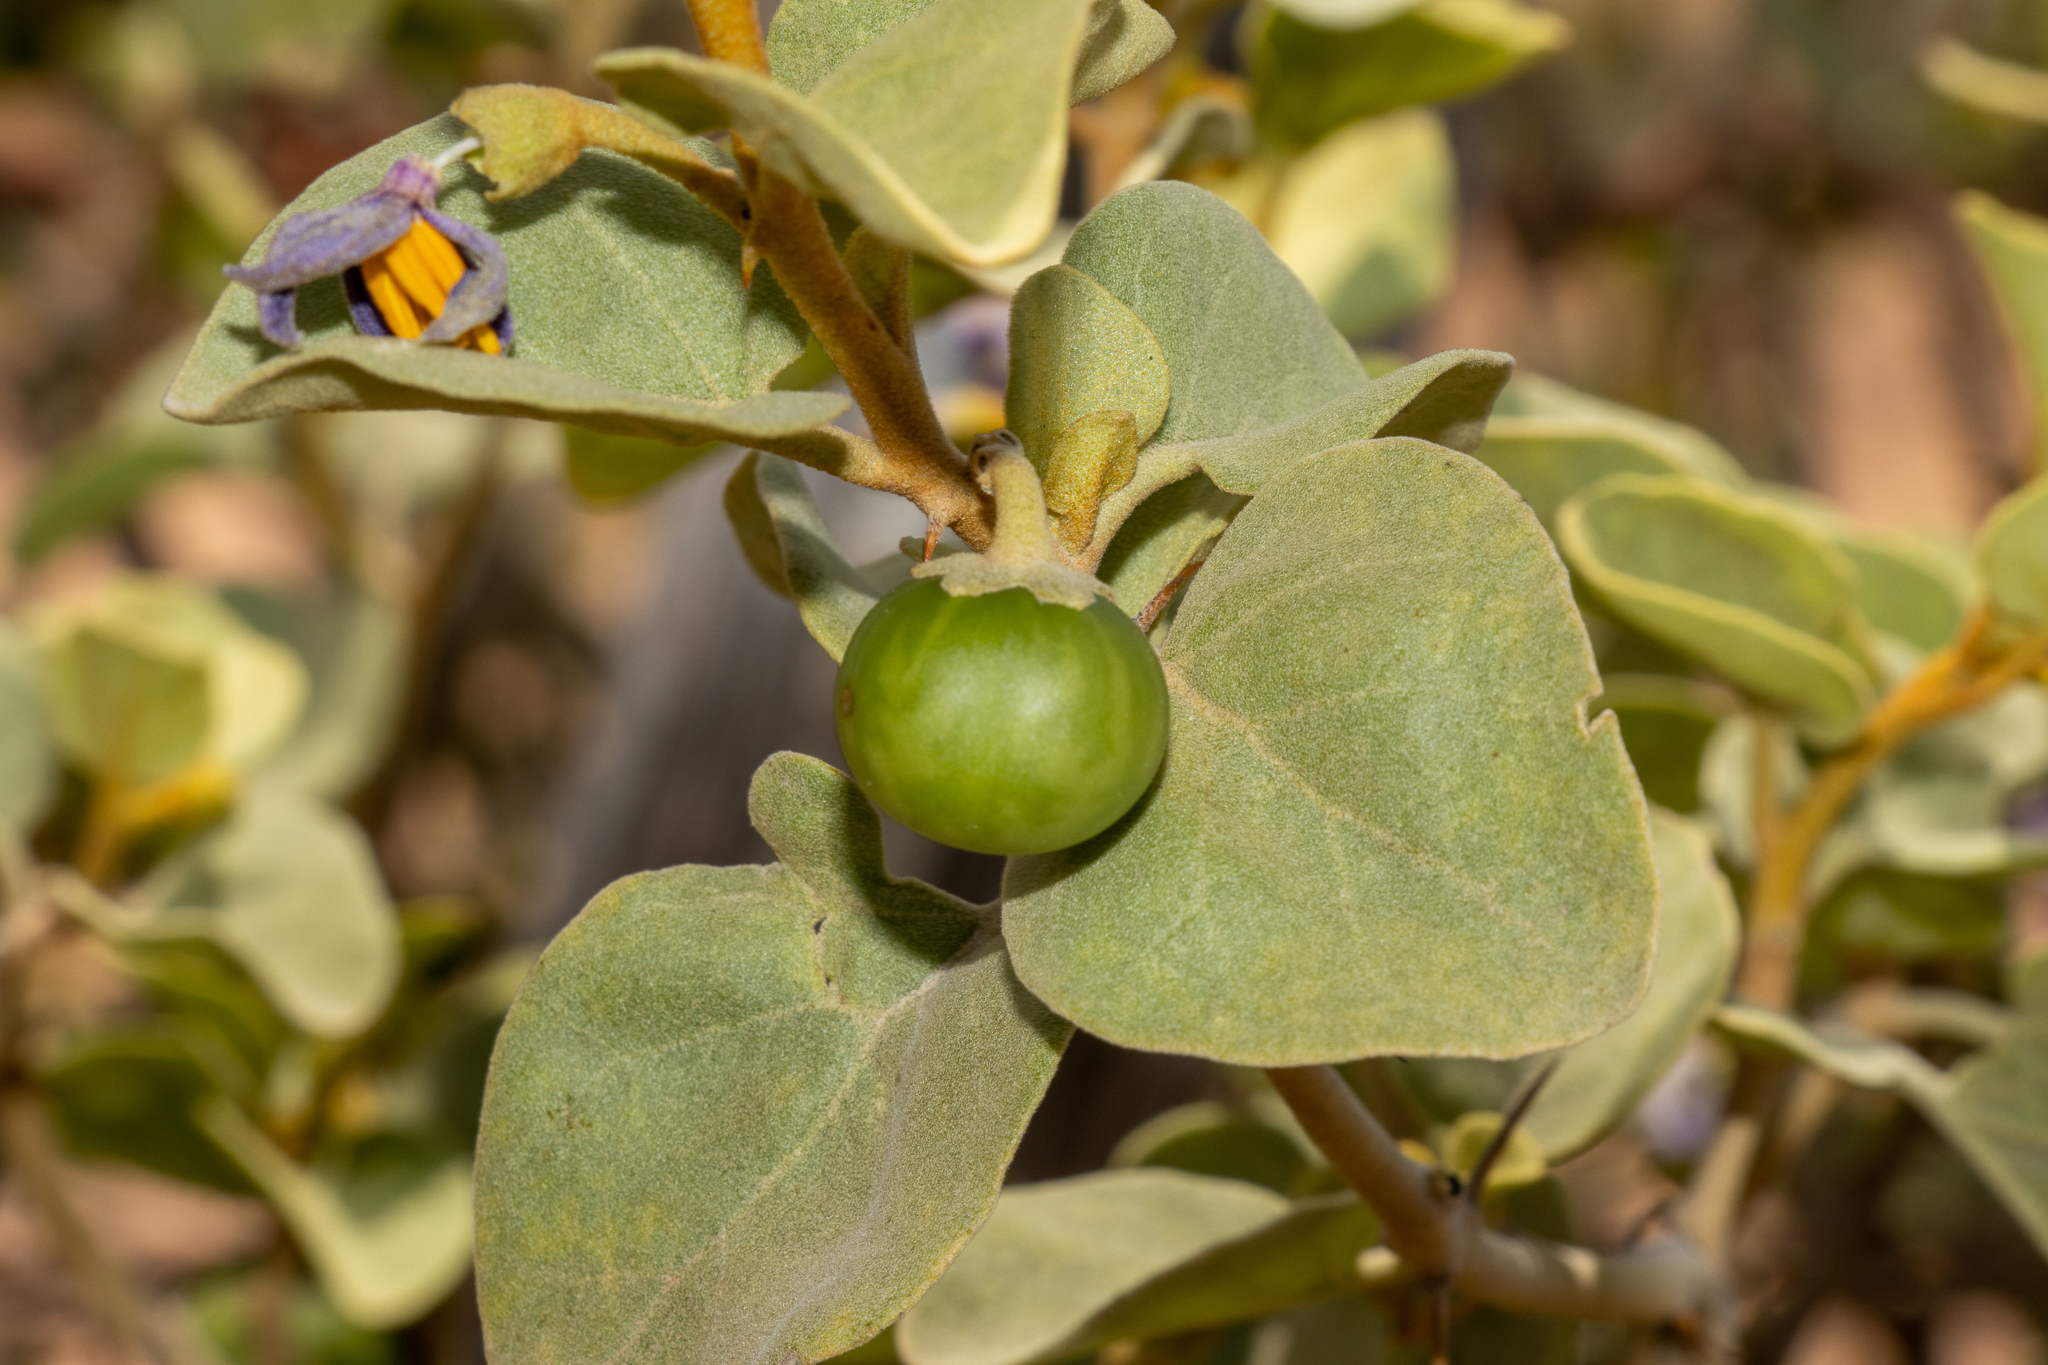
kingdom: Plantae
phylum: Tracheophyta
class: Magnoliopsida
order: Solanales
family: Solanaceae
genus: Solanum
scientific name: Solanum orbiculatum
